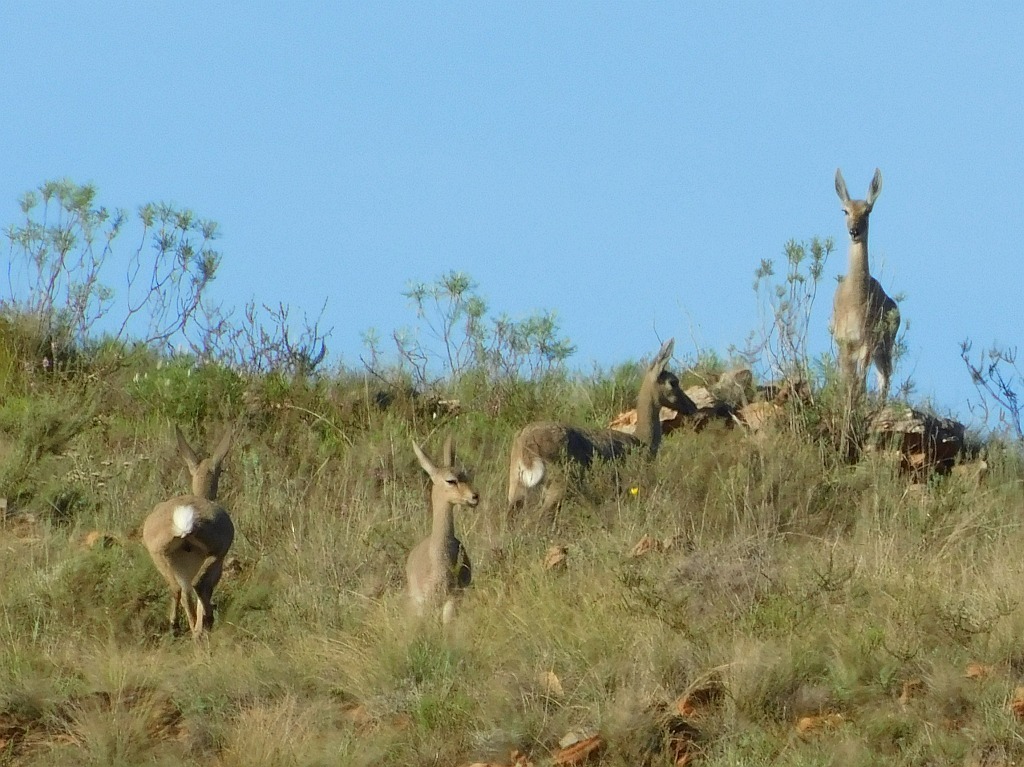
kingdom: Animalia
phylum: Chordata
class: Mammalia
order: Artiodactyla
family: Bovidae
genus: Pelea
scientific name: Pelea capreolus
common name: Common rhebok
